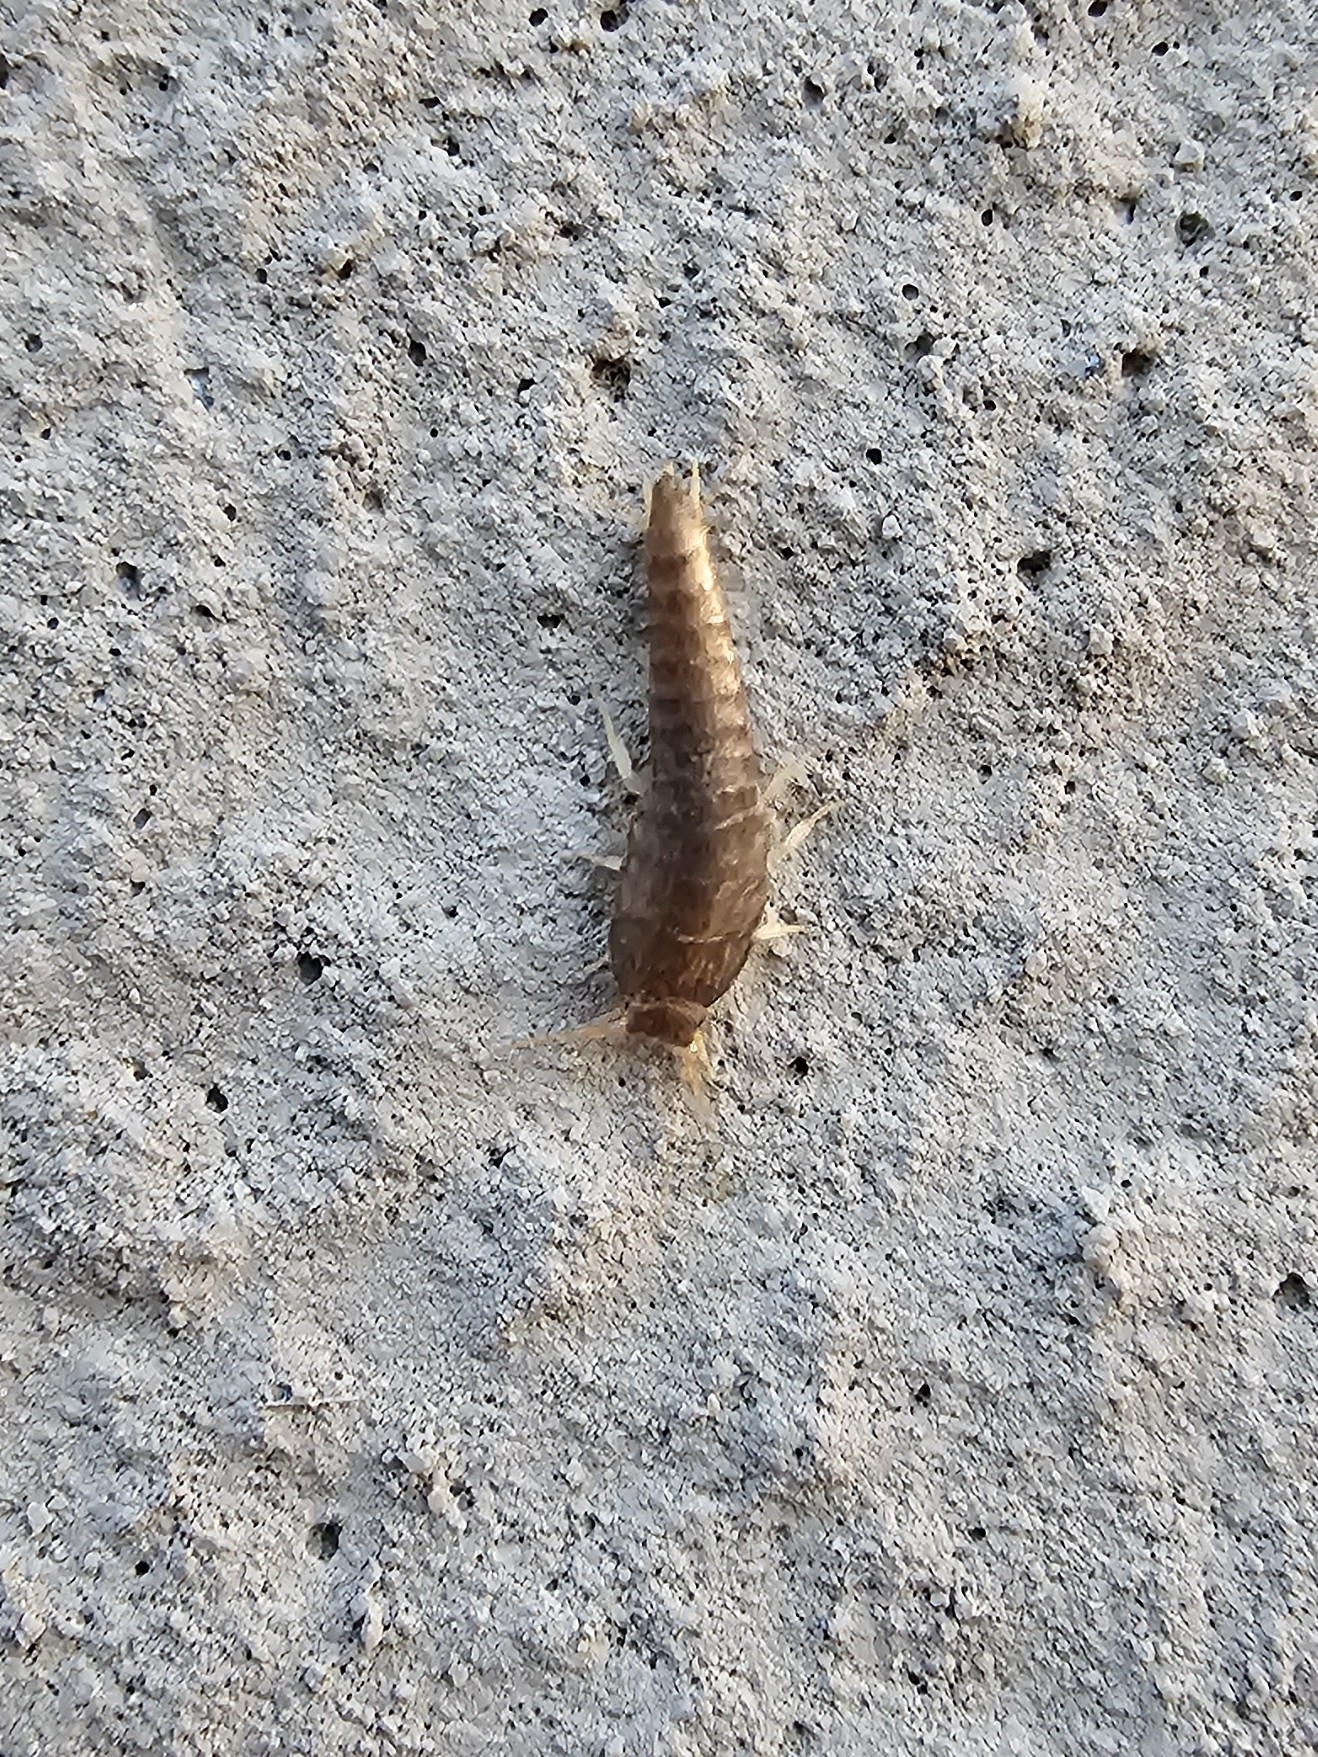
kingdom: Animalia
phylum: Arthropoda
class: Insecta
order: Zygentoma
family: Lepismatidae
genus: Lepisma
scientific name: Lepisma saccharinum
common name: Silverfish
